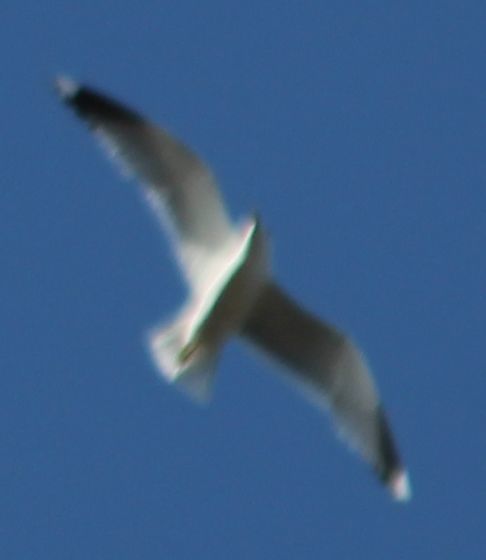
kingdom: Animalia
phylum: Chordata
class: Aves
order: Charadriiformes
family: Laridae
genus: Larus
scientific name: Larus canus
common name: Mew gull
